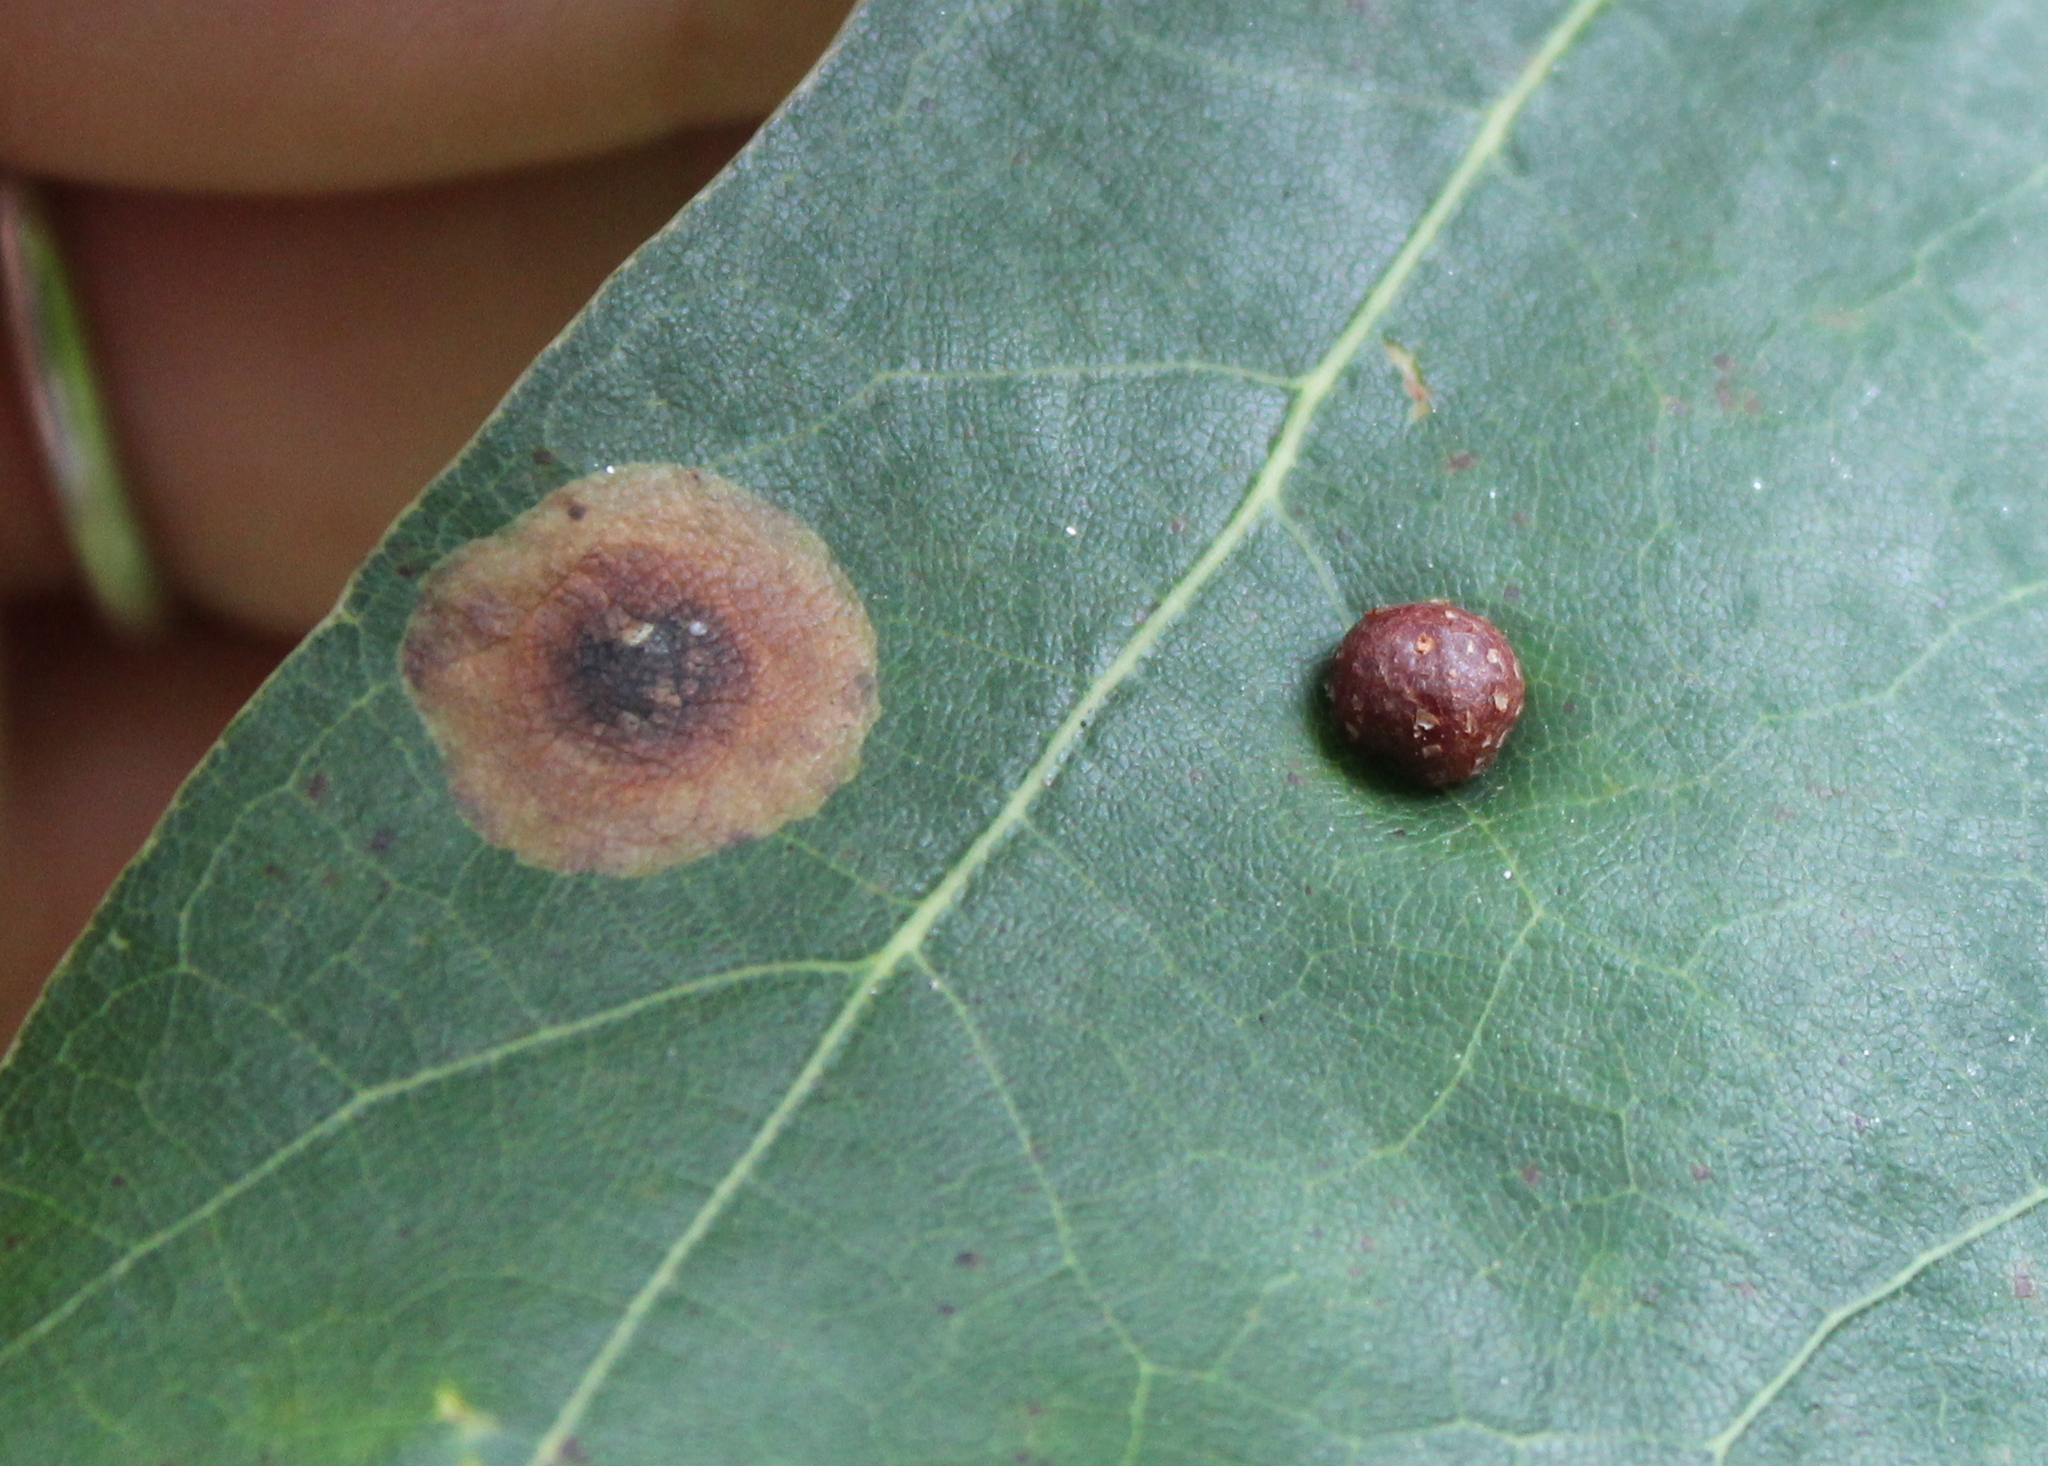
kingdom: Animalia
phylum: Arthropoda
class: Insecta
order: Diptera
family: Cecidomyiidae
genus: Polystepha
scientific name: Polystepha pilulae
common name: Oak leaf gall midge
